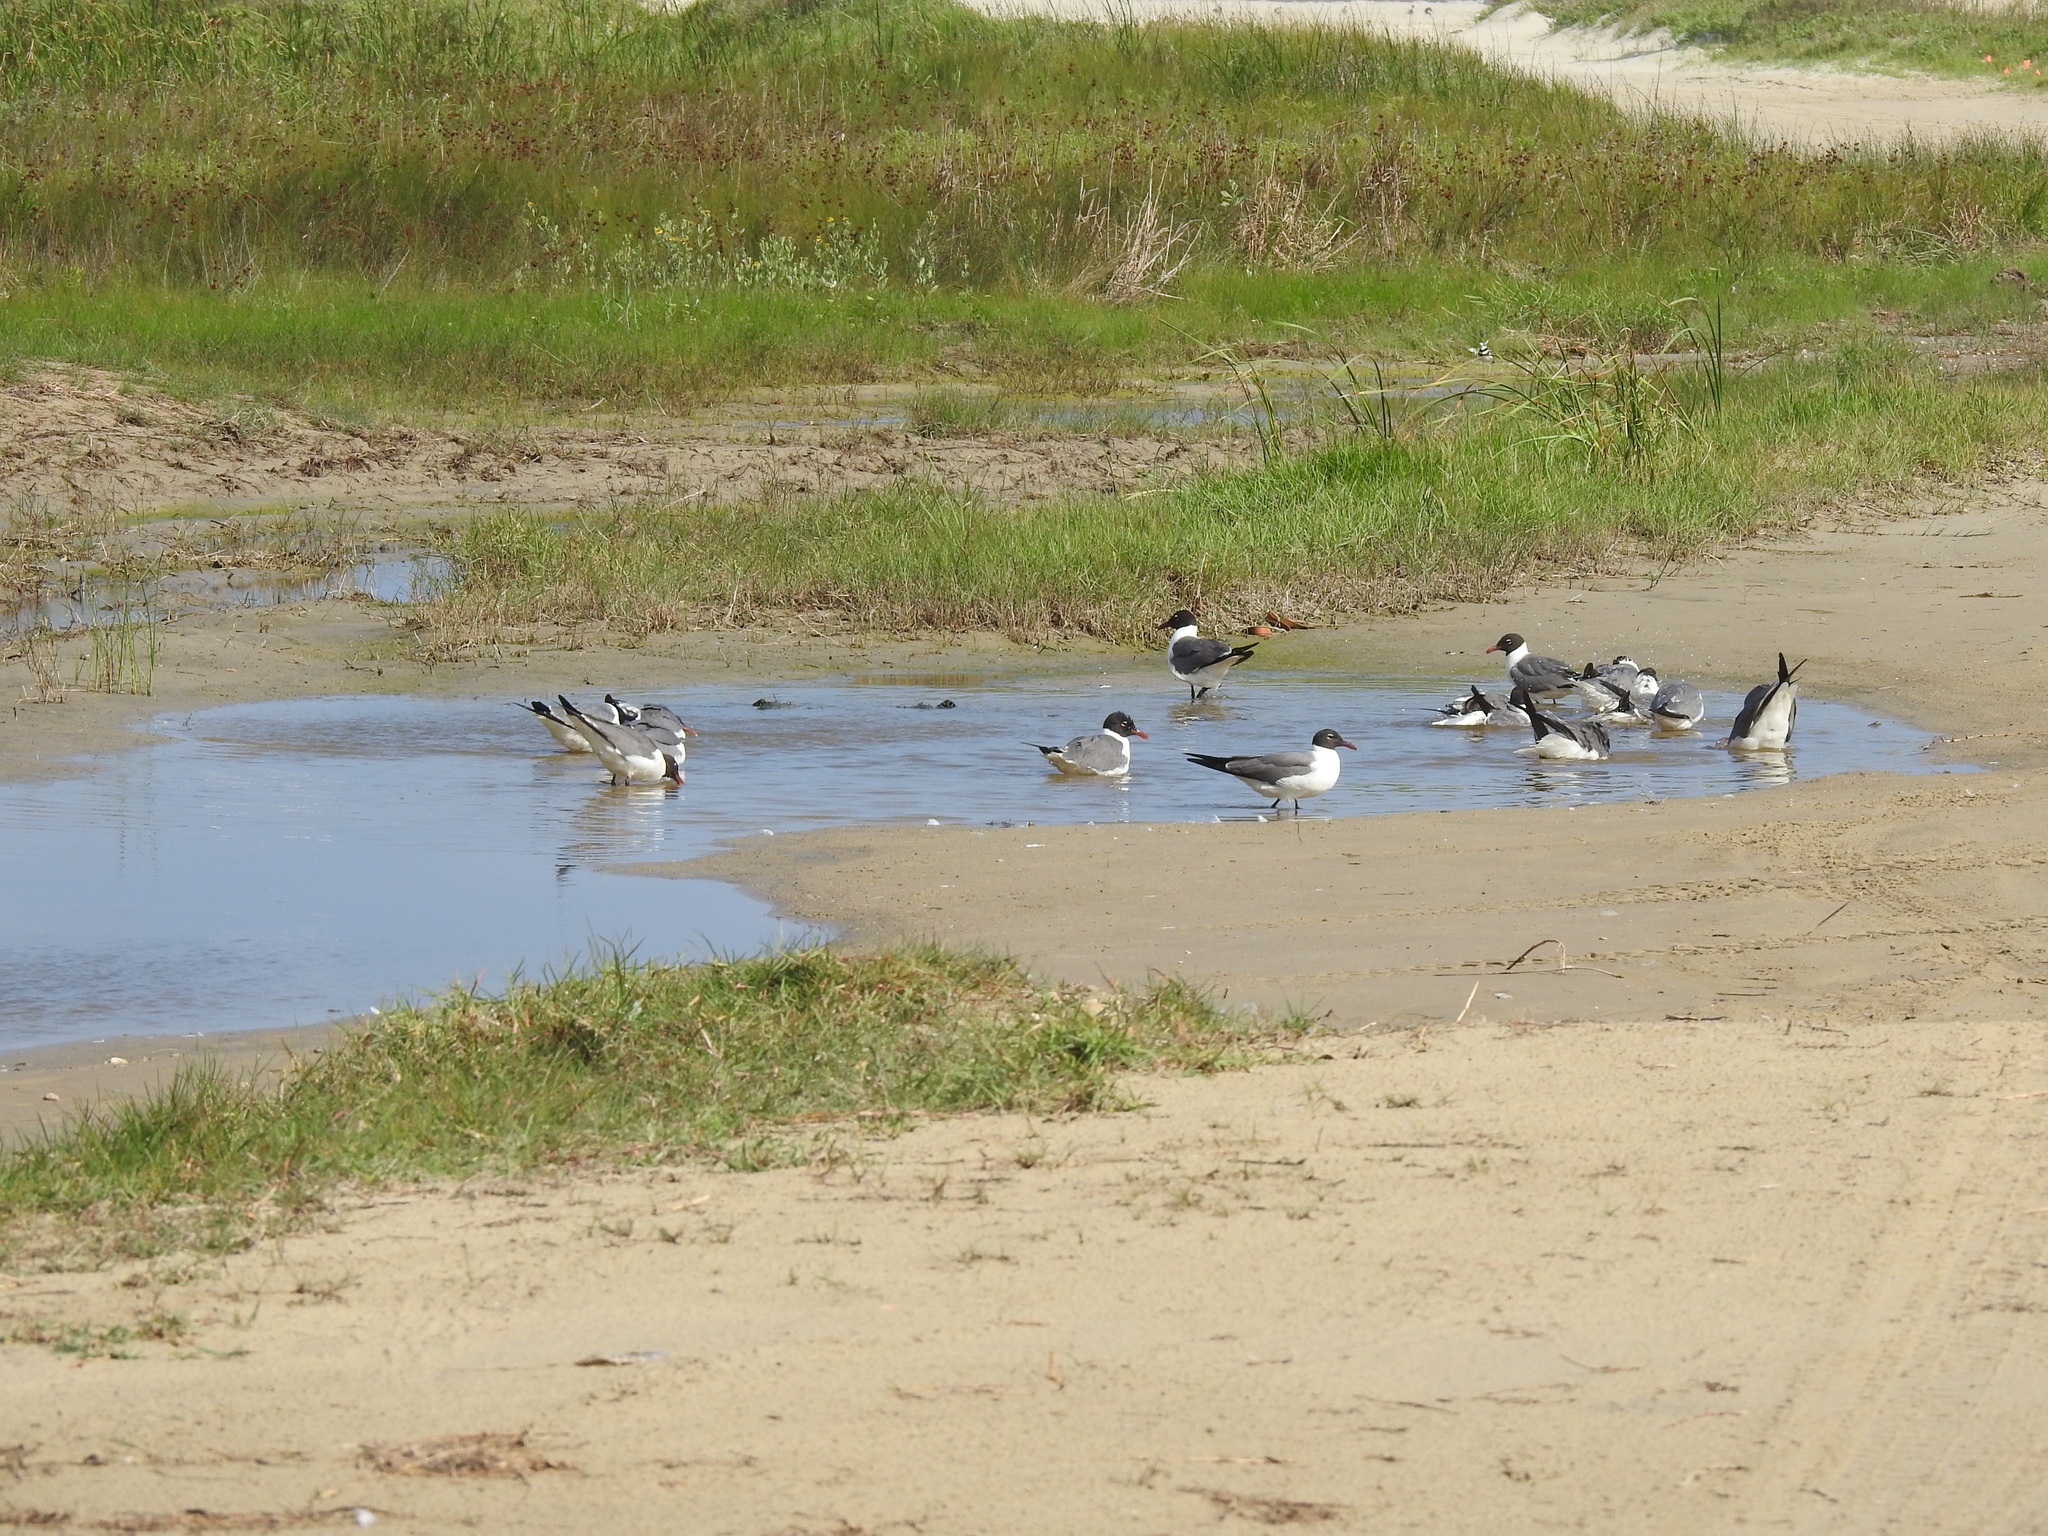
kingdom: Animalia
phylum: Chordata
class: Aves
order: Charadriiformes
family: Laridae
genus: Leucophaeus
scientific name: Leucophaeus atricilla
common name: Laughing gull
